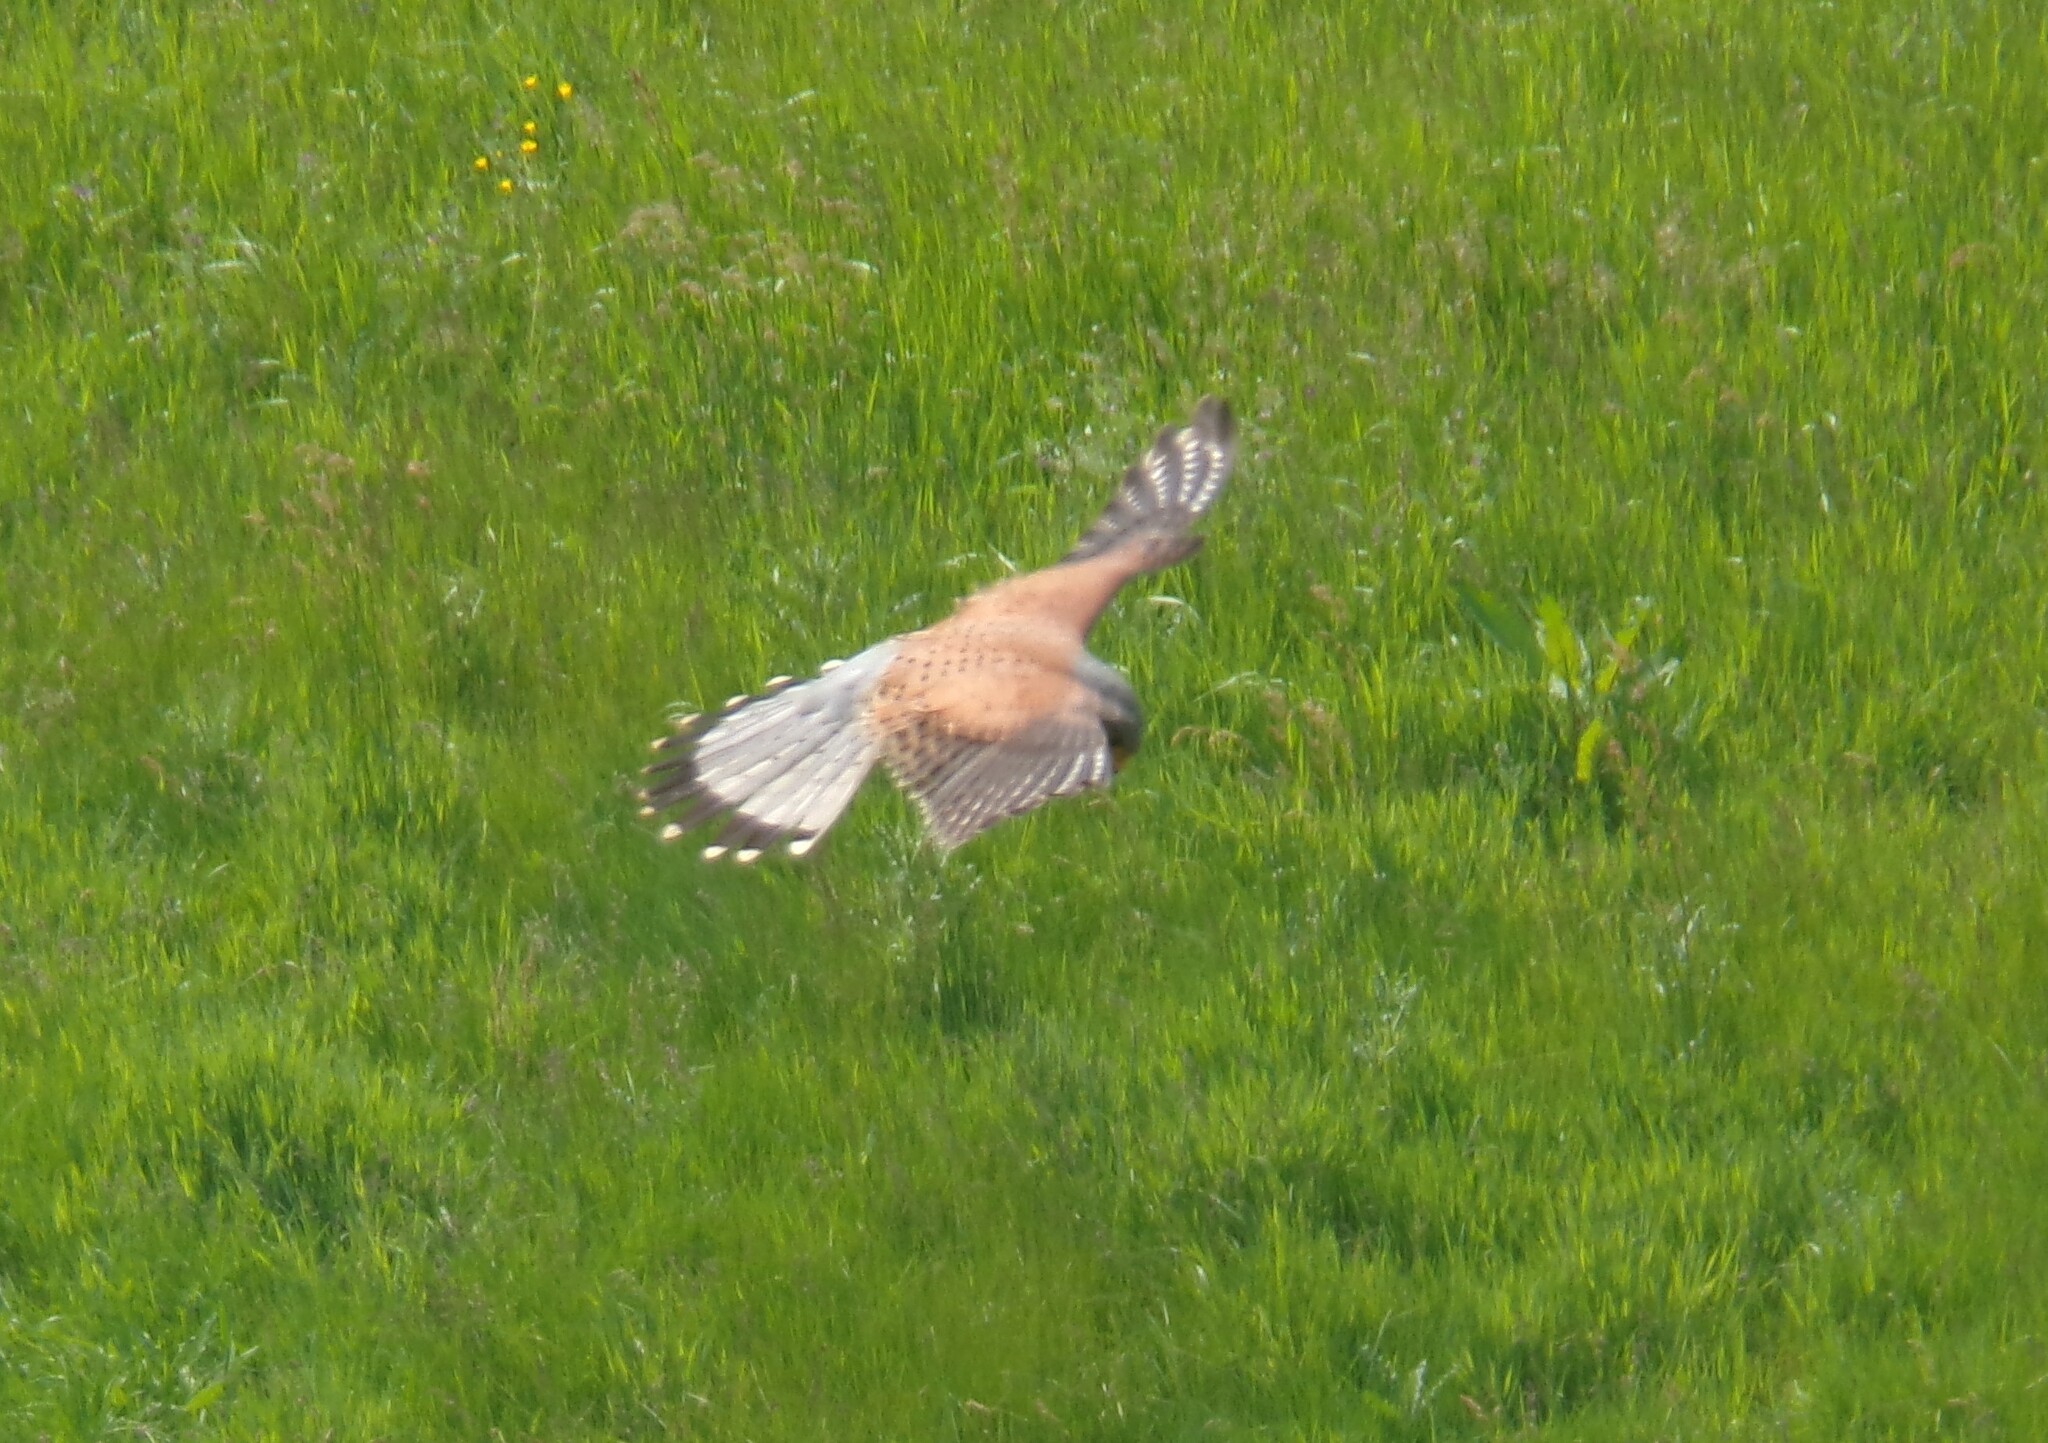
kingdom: Animalia
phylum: Chordata
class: Aves
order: Falconiformes
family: Falconidae
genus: Falco
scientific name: Falco tinnunculus
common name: Common kestrel
